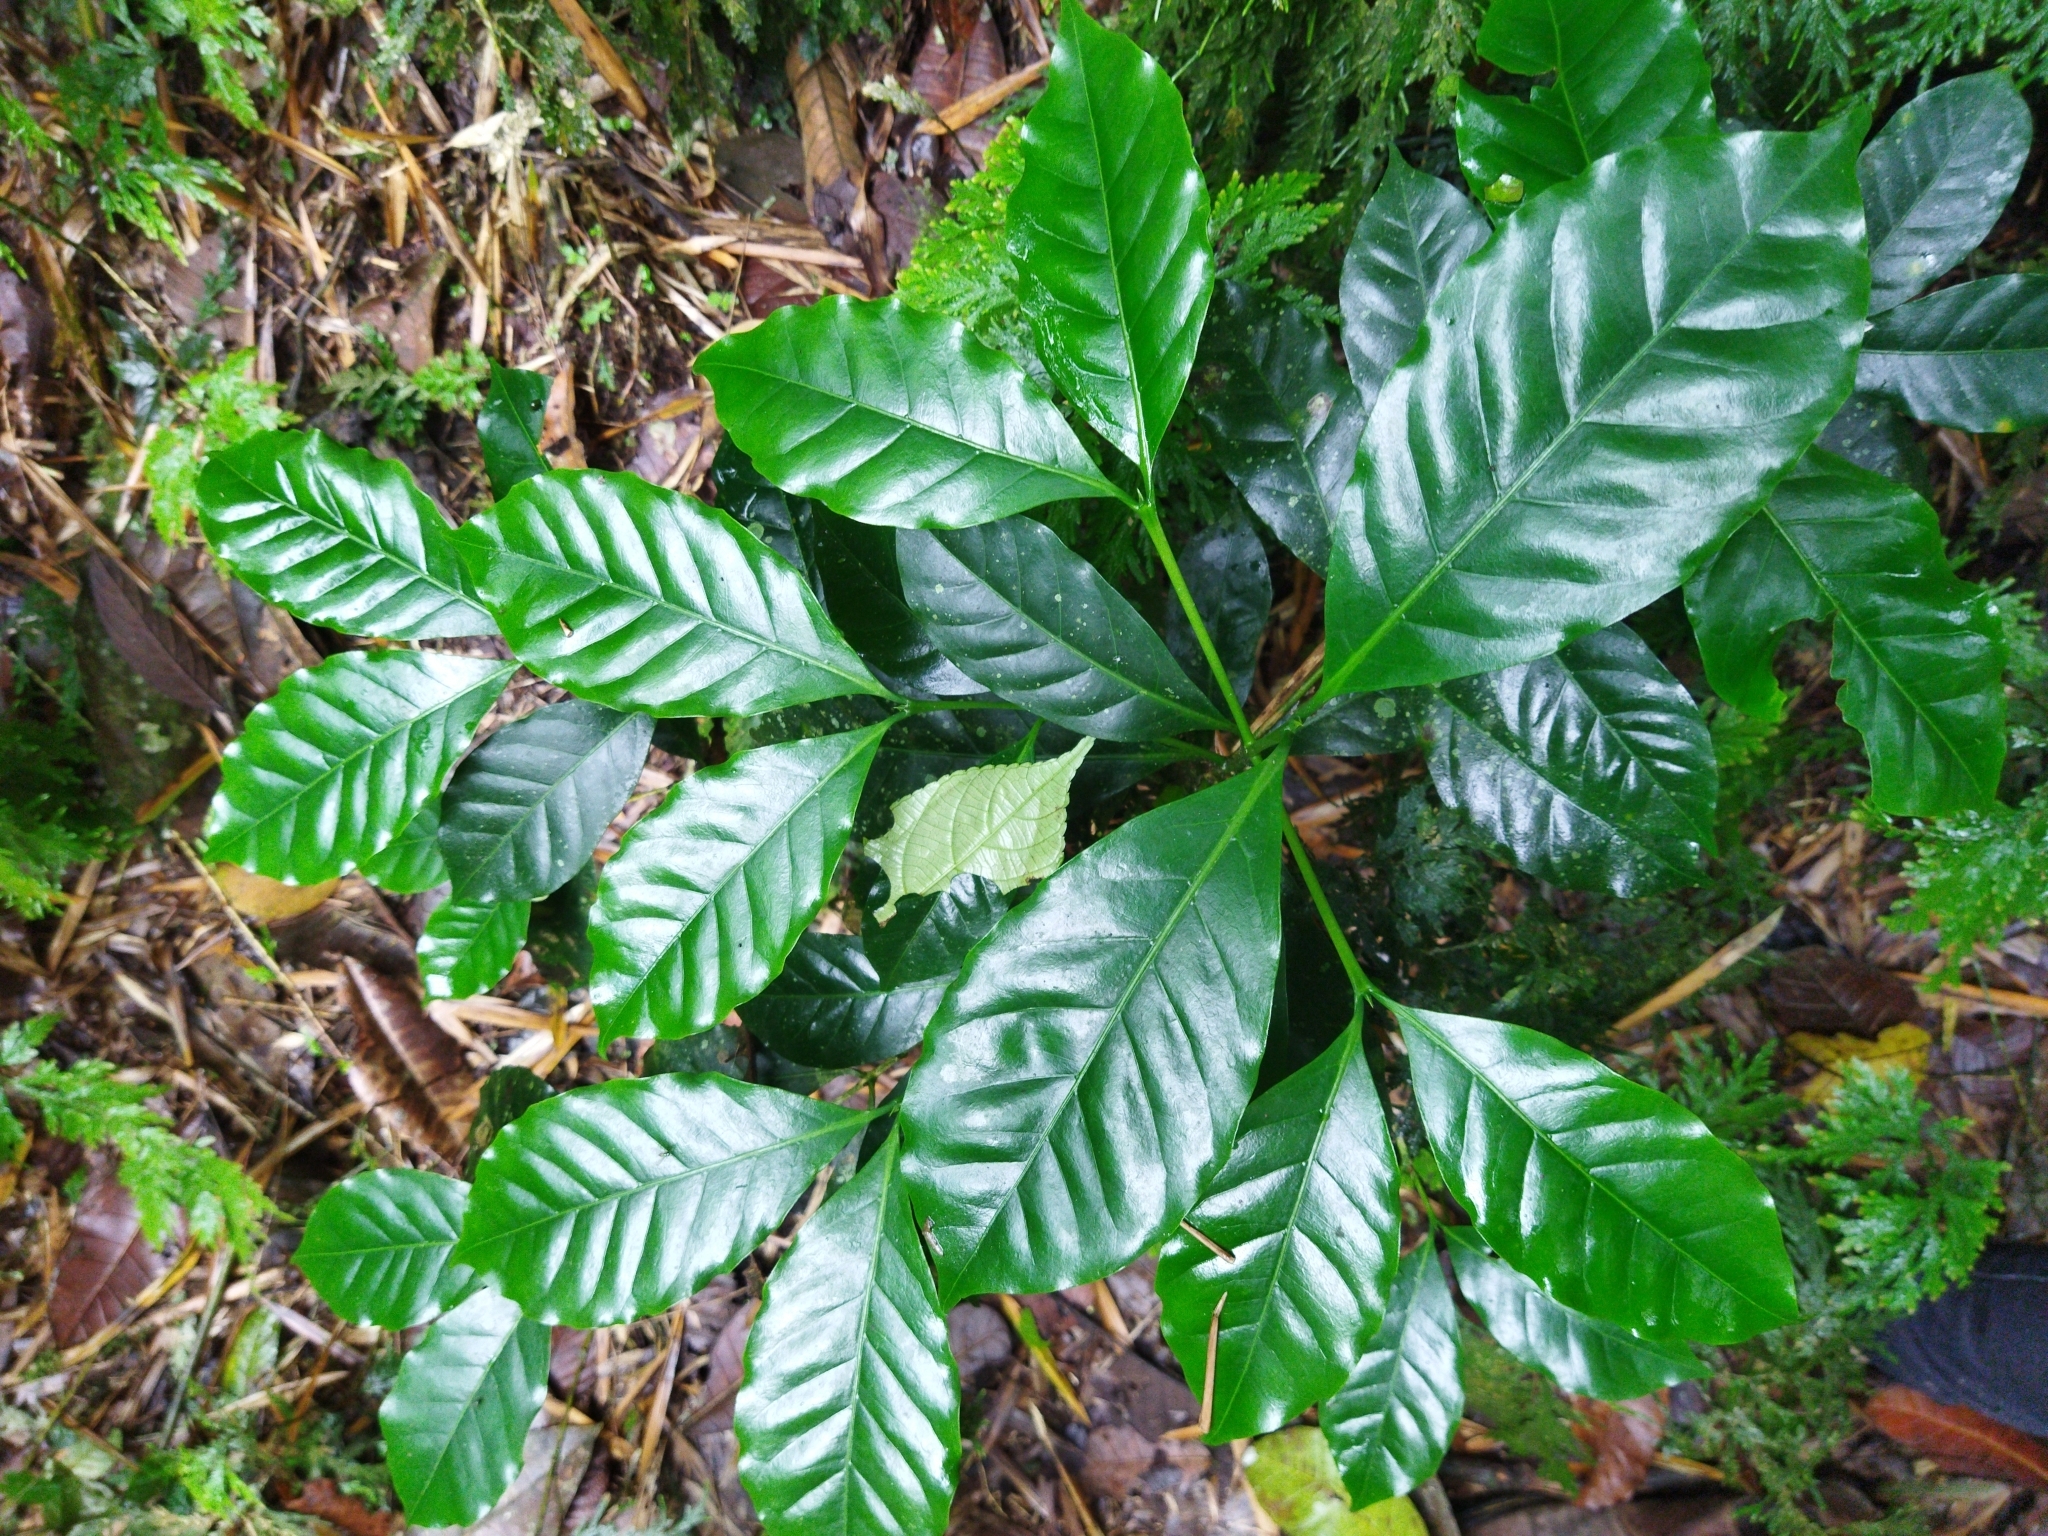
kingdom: Plantae
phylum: Tracheophyta
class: Magnoliopsida
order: Gentianales
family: Rubiaceae
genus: Coffea
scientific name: Coffea arabica
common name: Coffee
